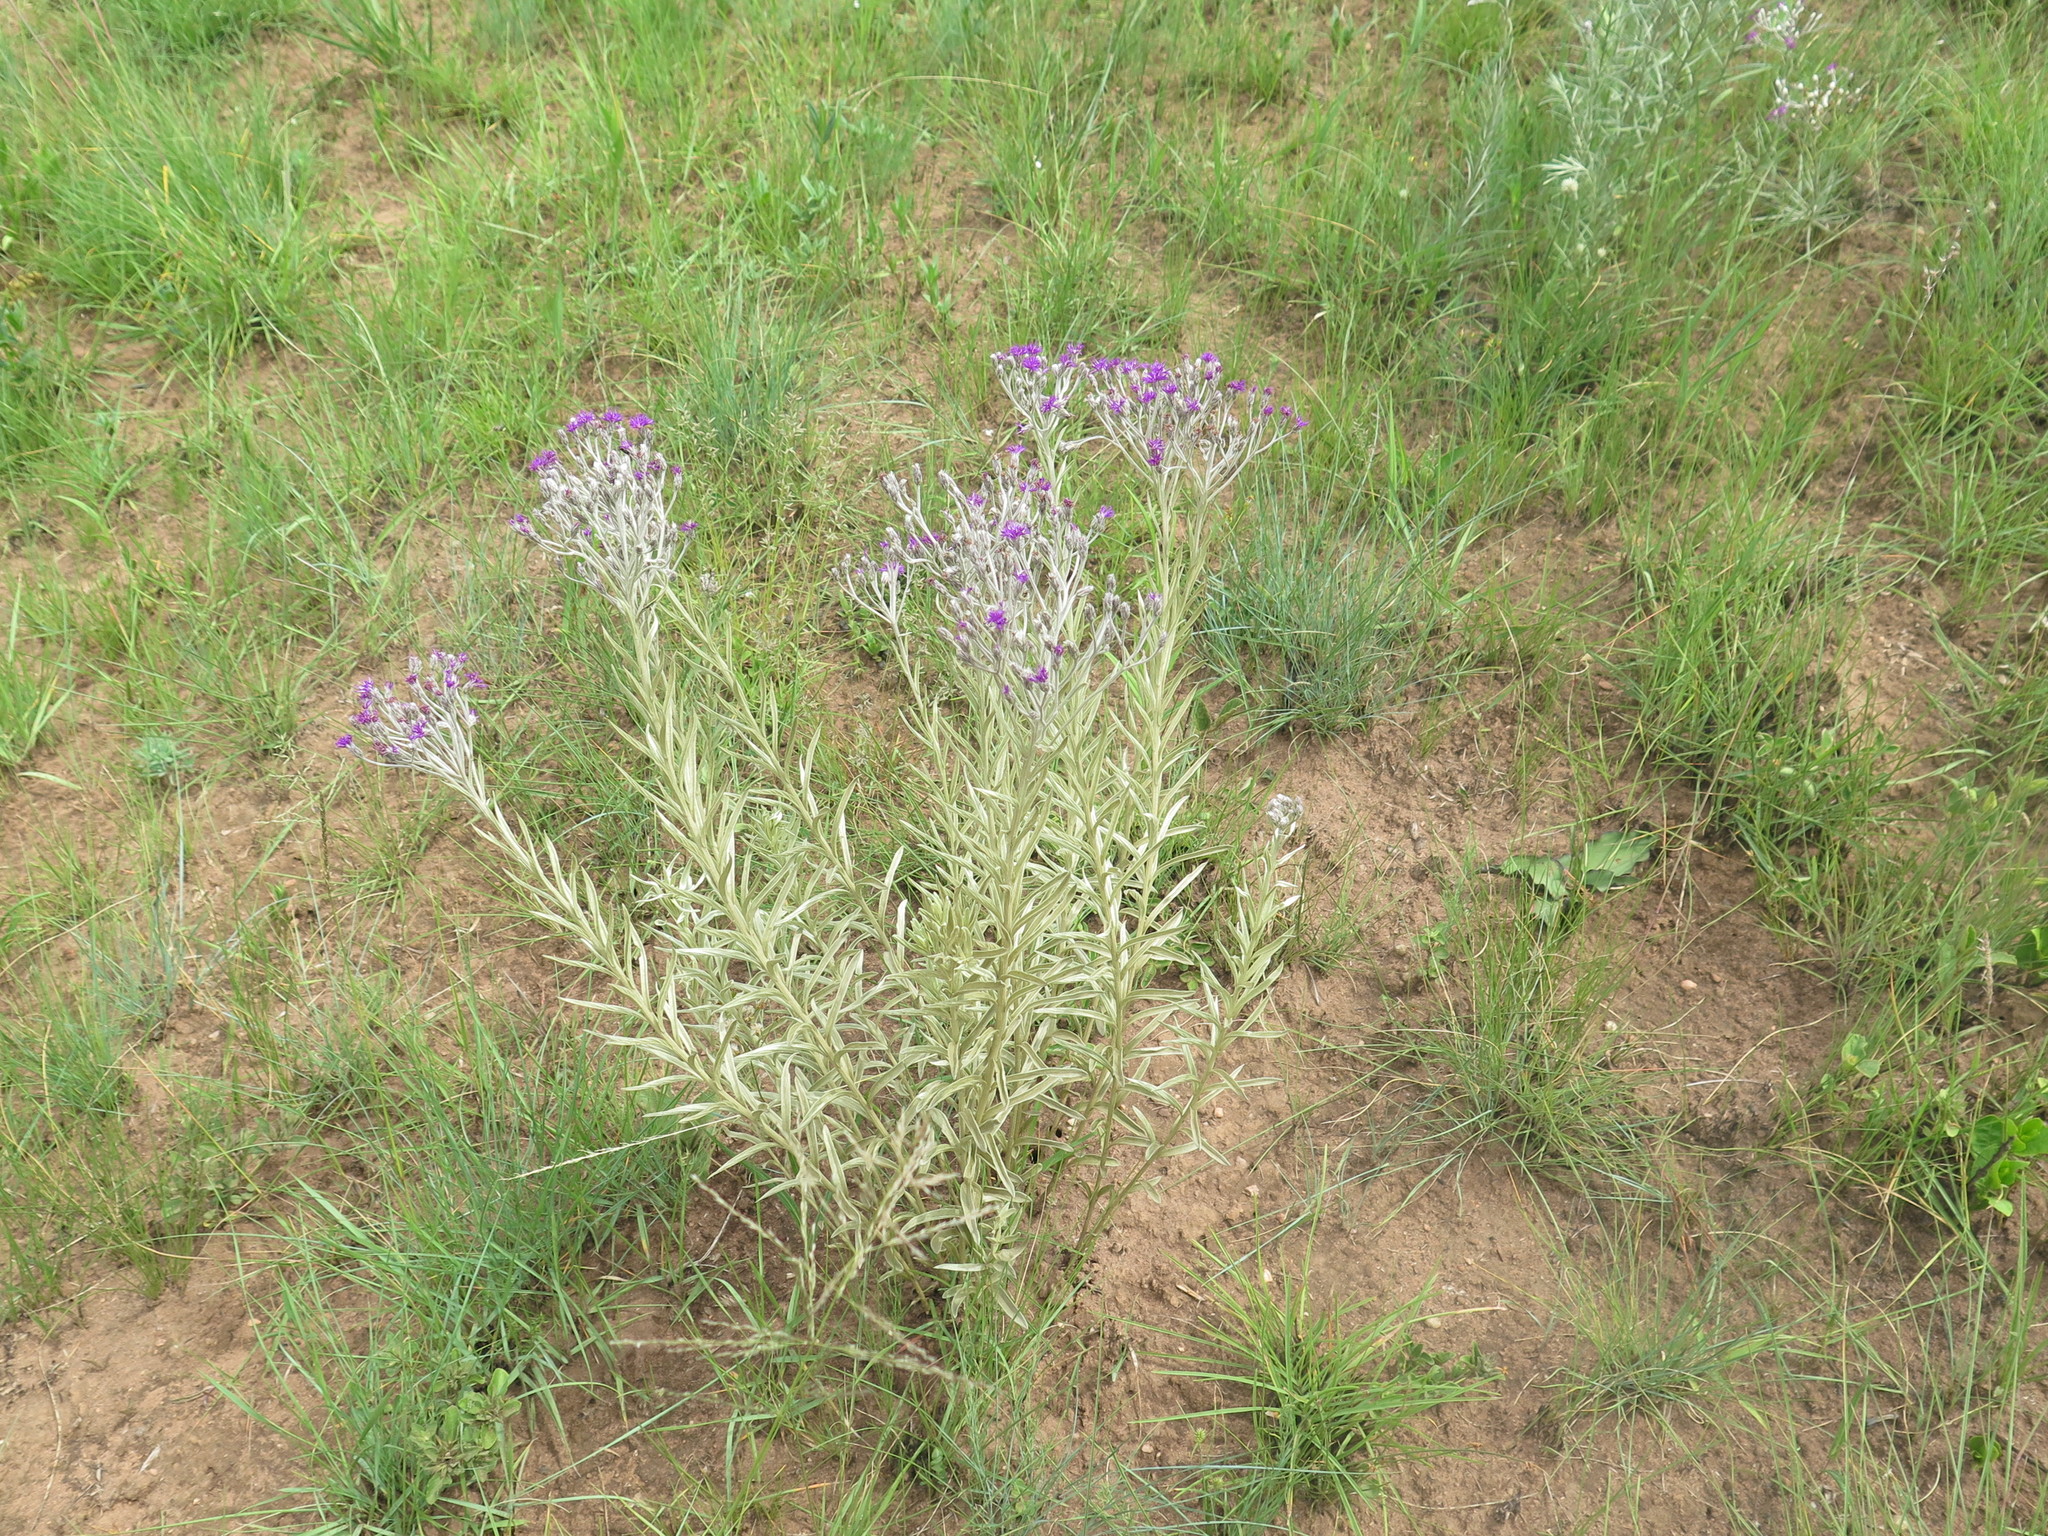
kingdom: Plantae
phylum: Tracheophyta
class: Magnoliopsida
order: Asterales
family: Asteraceae
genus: Hilliardiella
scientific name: Hilliardiella aristata
